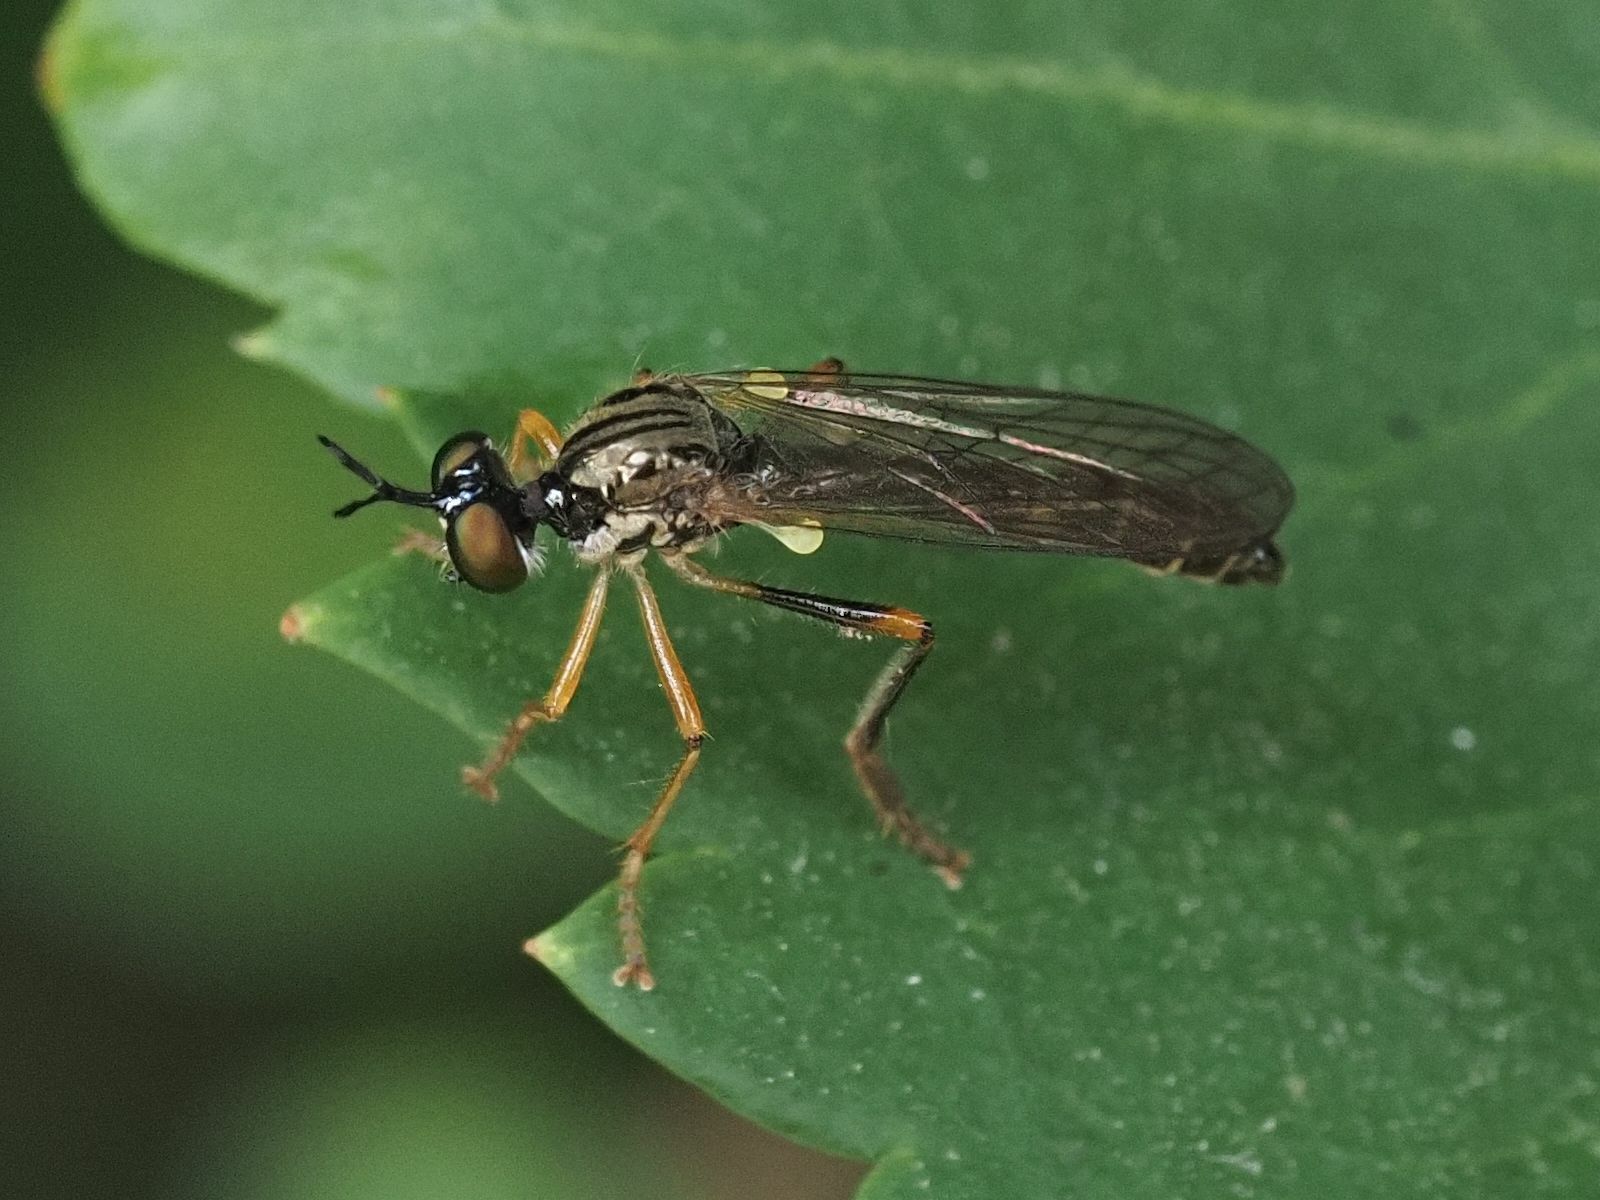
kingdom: Animalia
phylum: Arthropoda
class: Insecta
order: Diptera
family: Asilidae
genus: Dioctria
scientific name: Dioctria linearis
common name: Small yellow-legged robberfly
